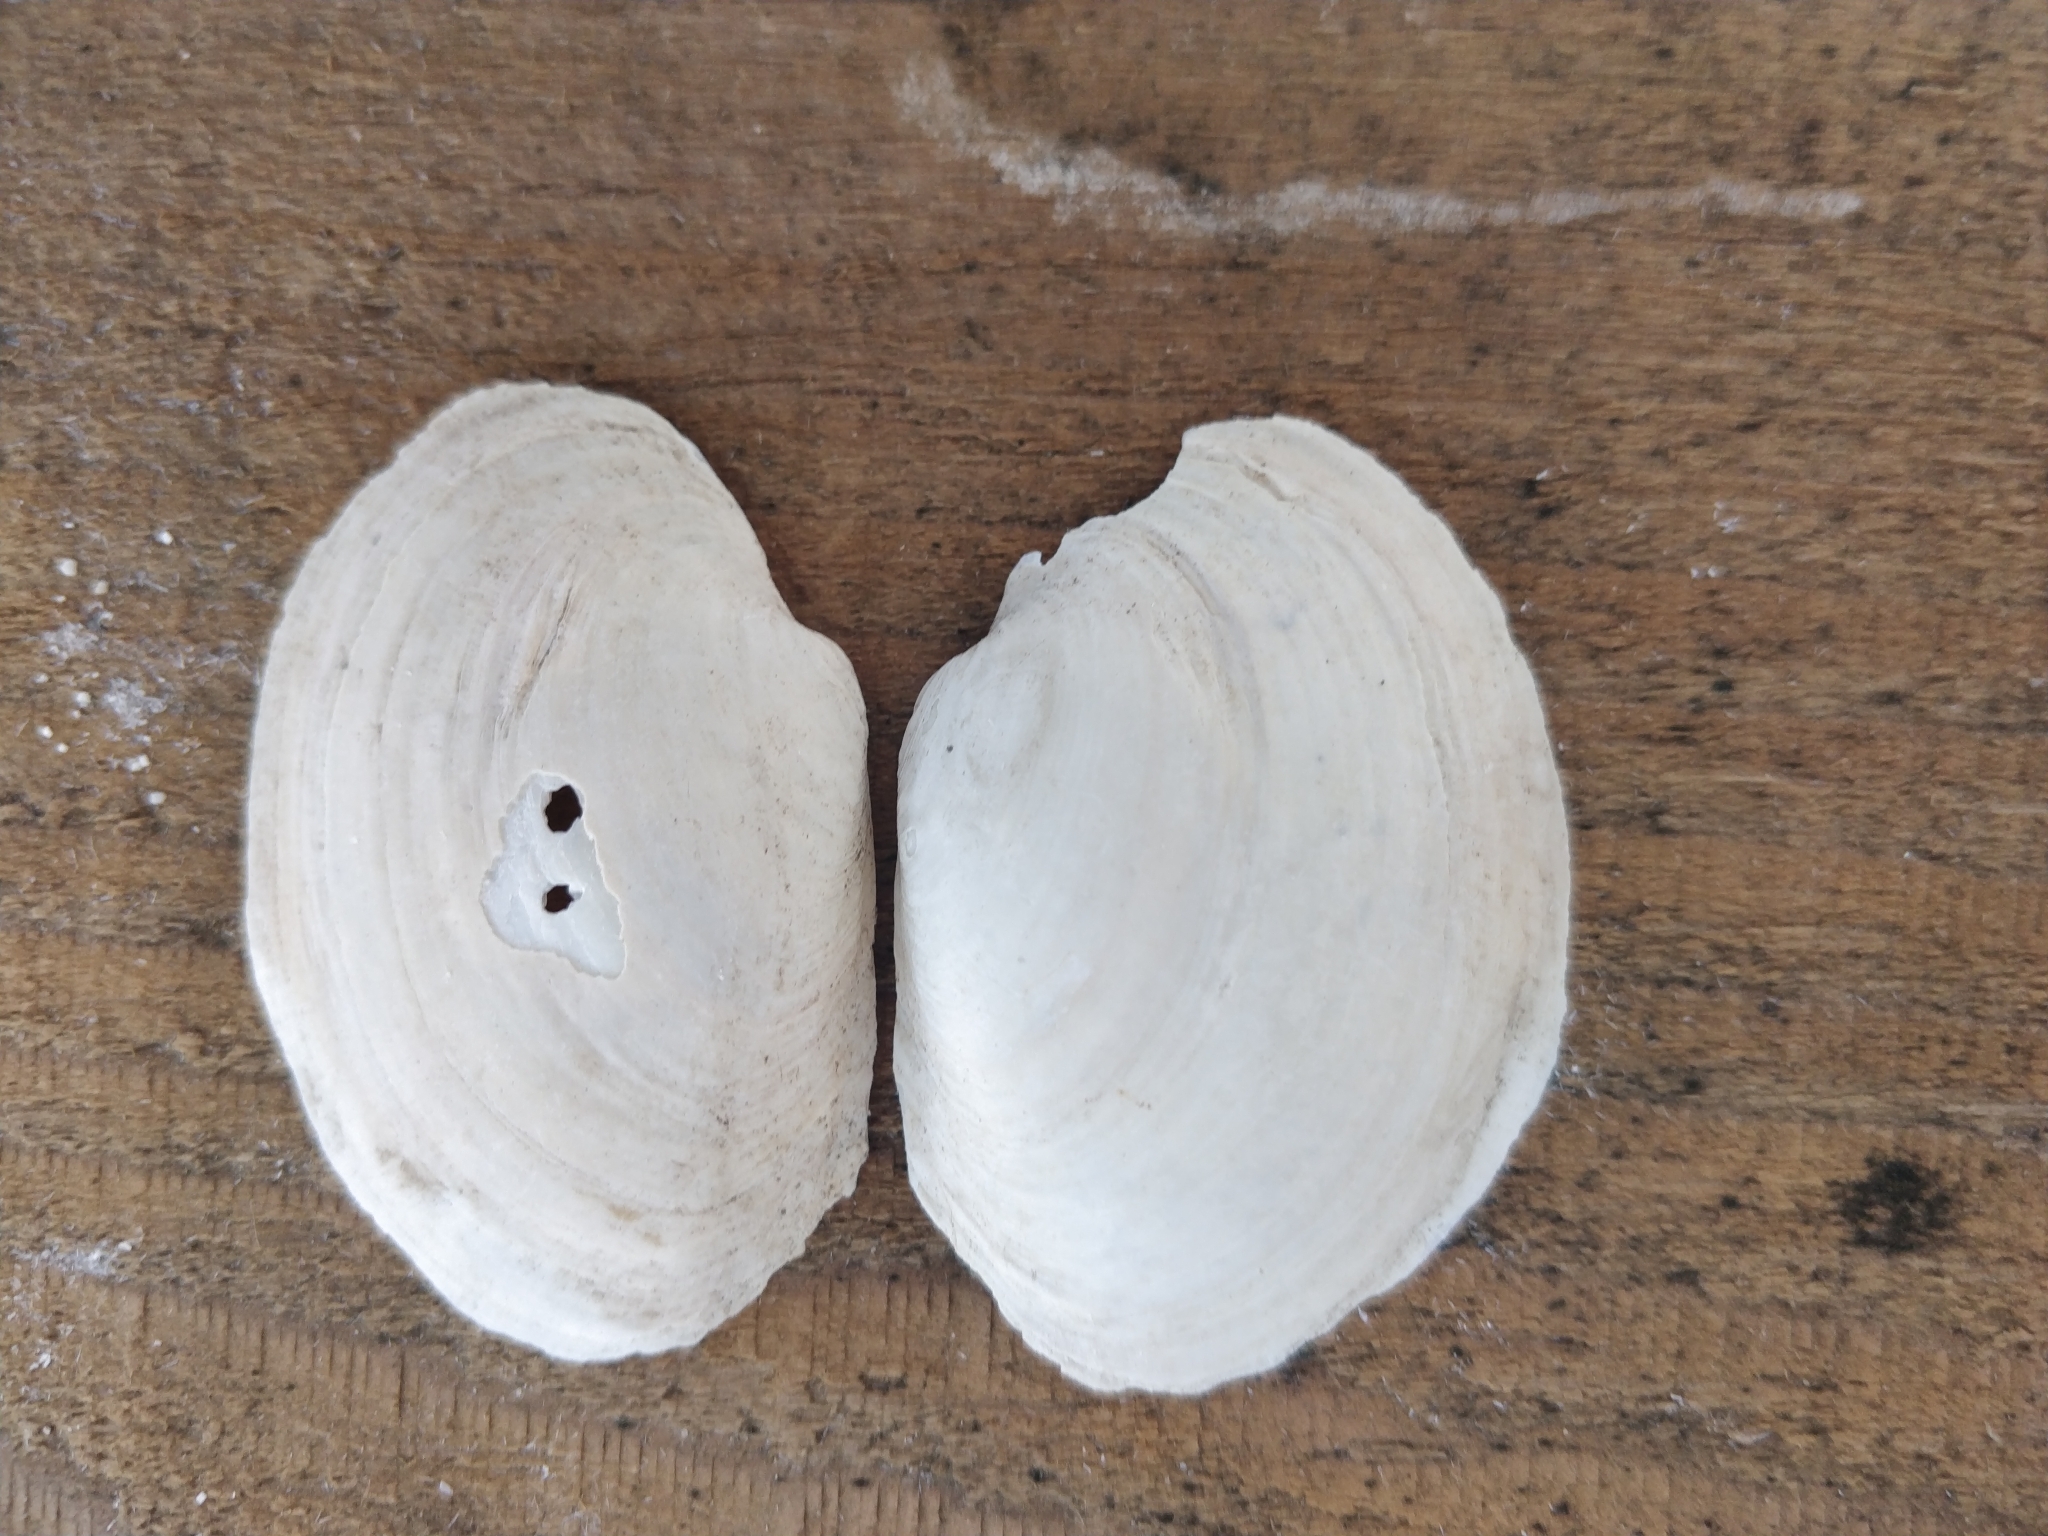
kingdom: Animalia
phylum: Mollusca
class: Bivalvia
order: Unionida
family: Unionidae
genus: Lampsilis
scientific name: Lampsilis cardium
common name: Plain pocketbook
